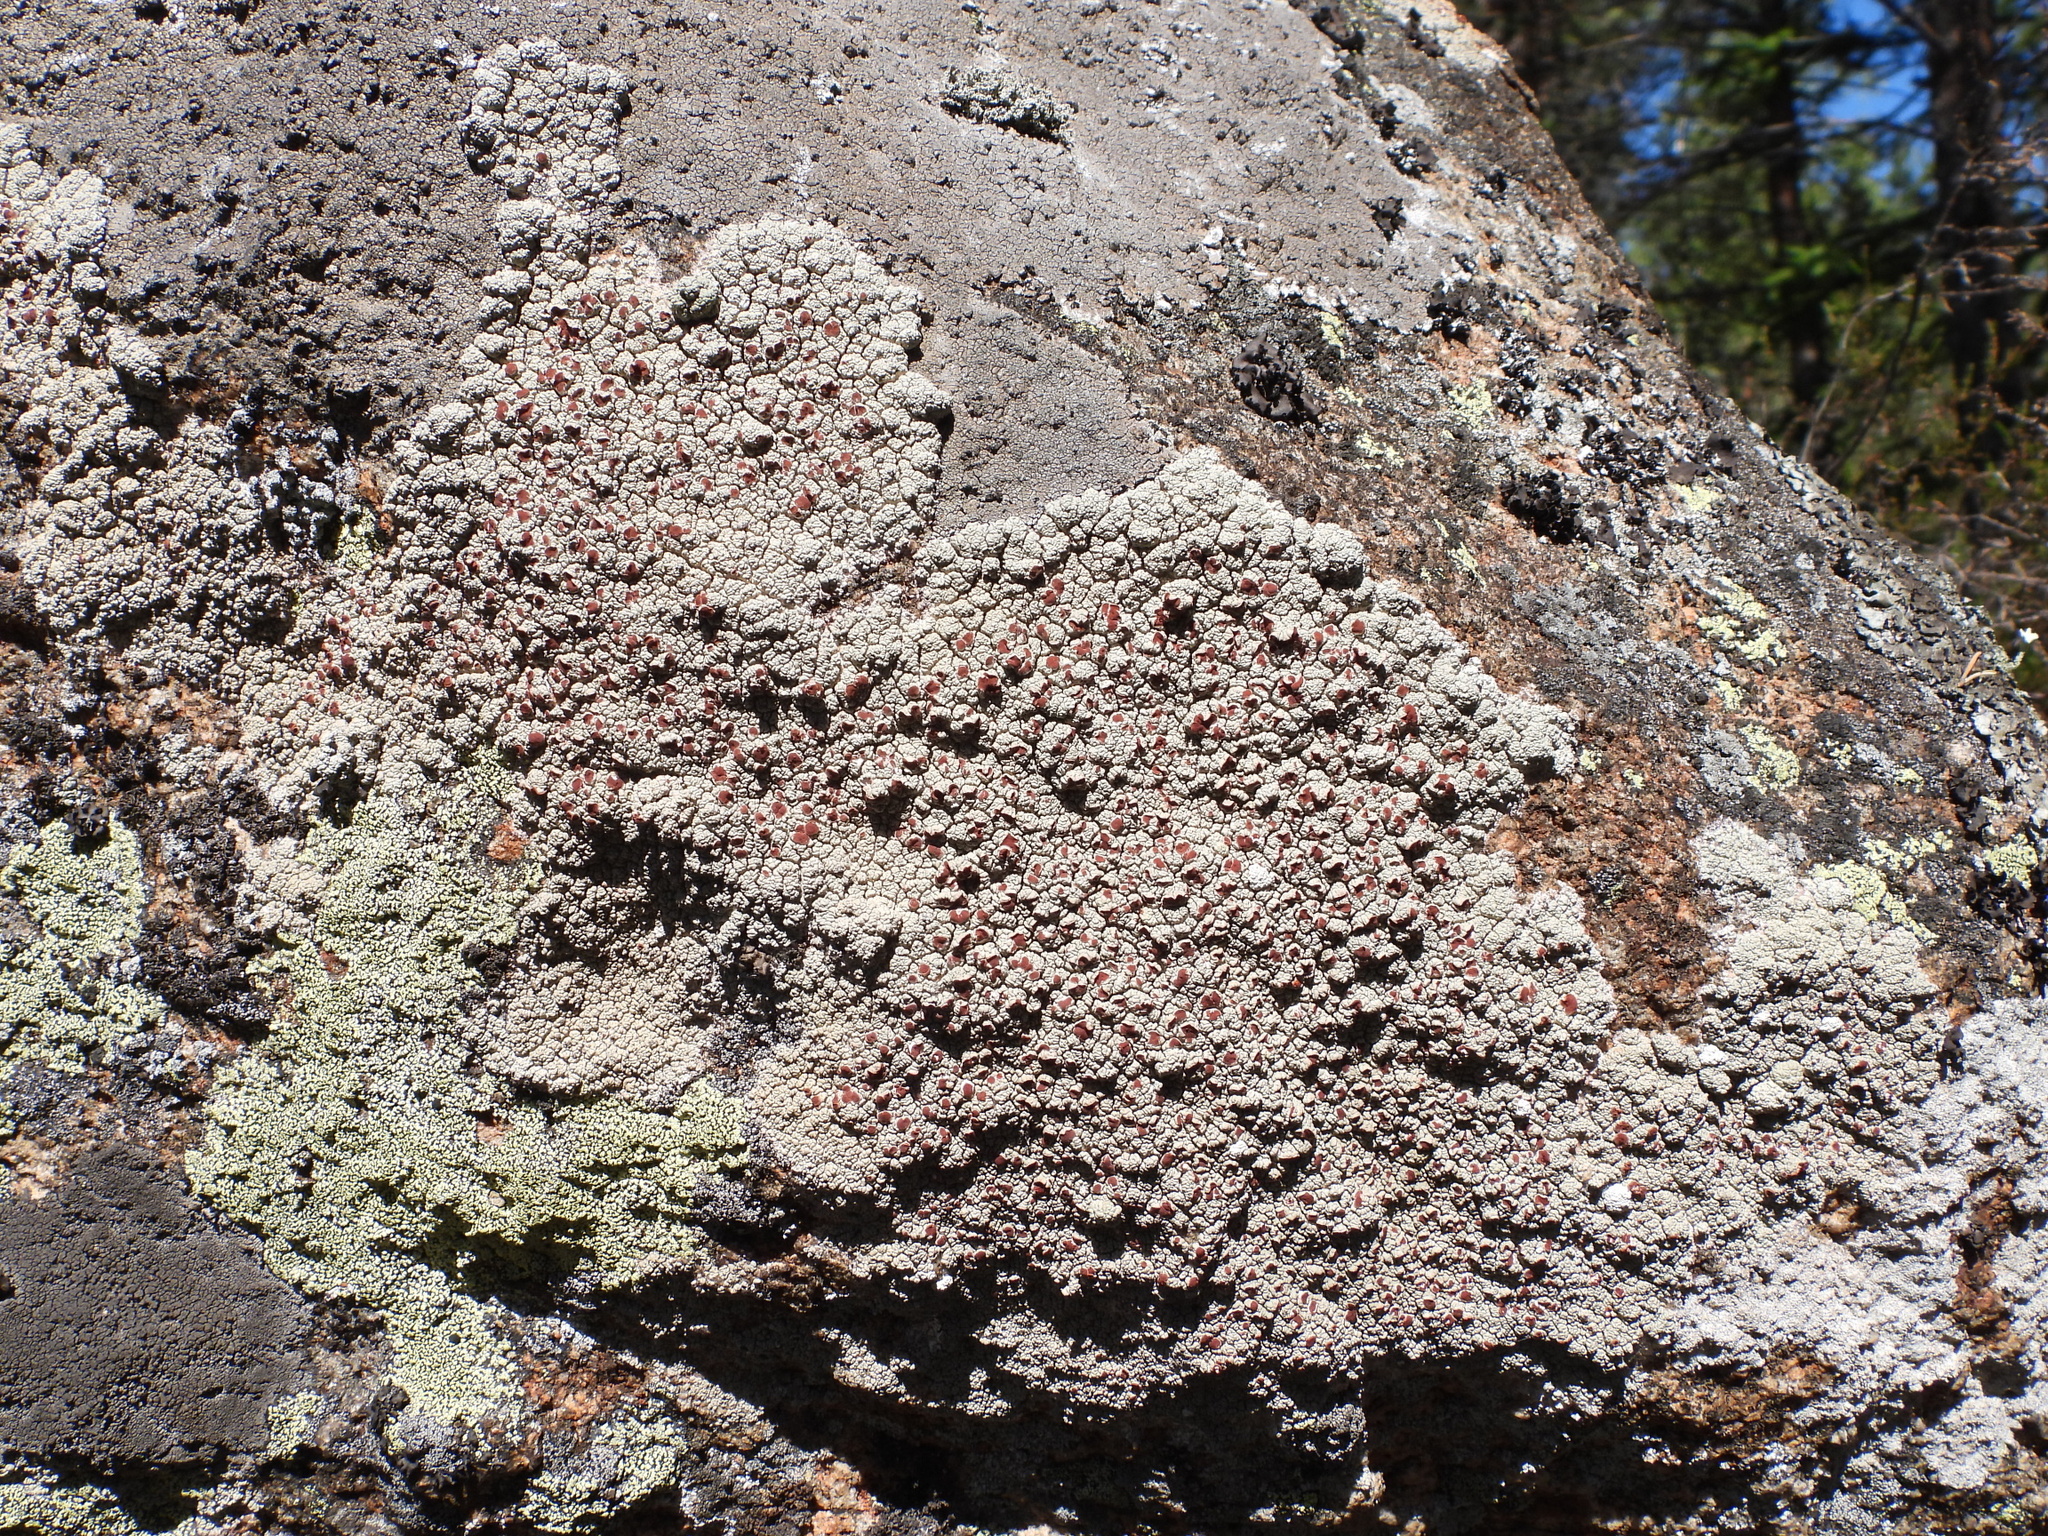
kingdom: Fungi
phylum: Ascomycota
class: Lecanoromycetes
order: Umbilicariales
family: Ophioparmaceae
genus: Ophioparma
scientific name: Ophioparma ventosa
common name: Blood-spot
